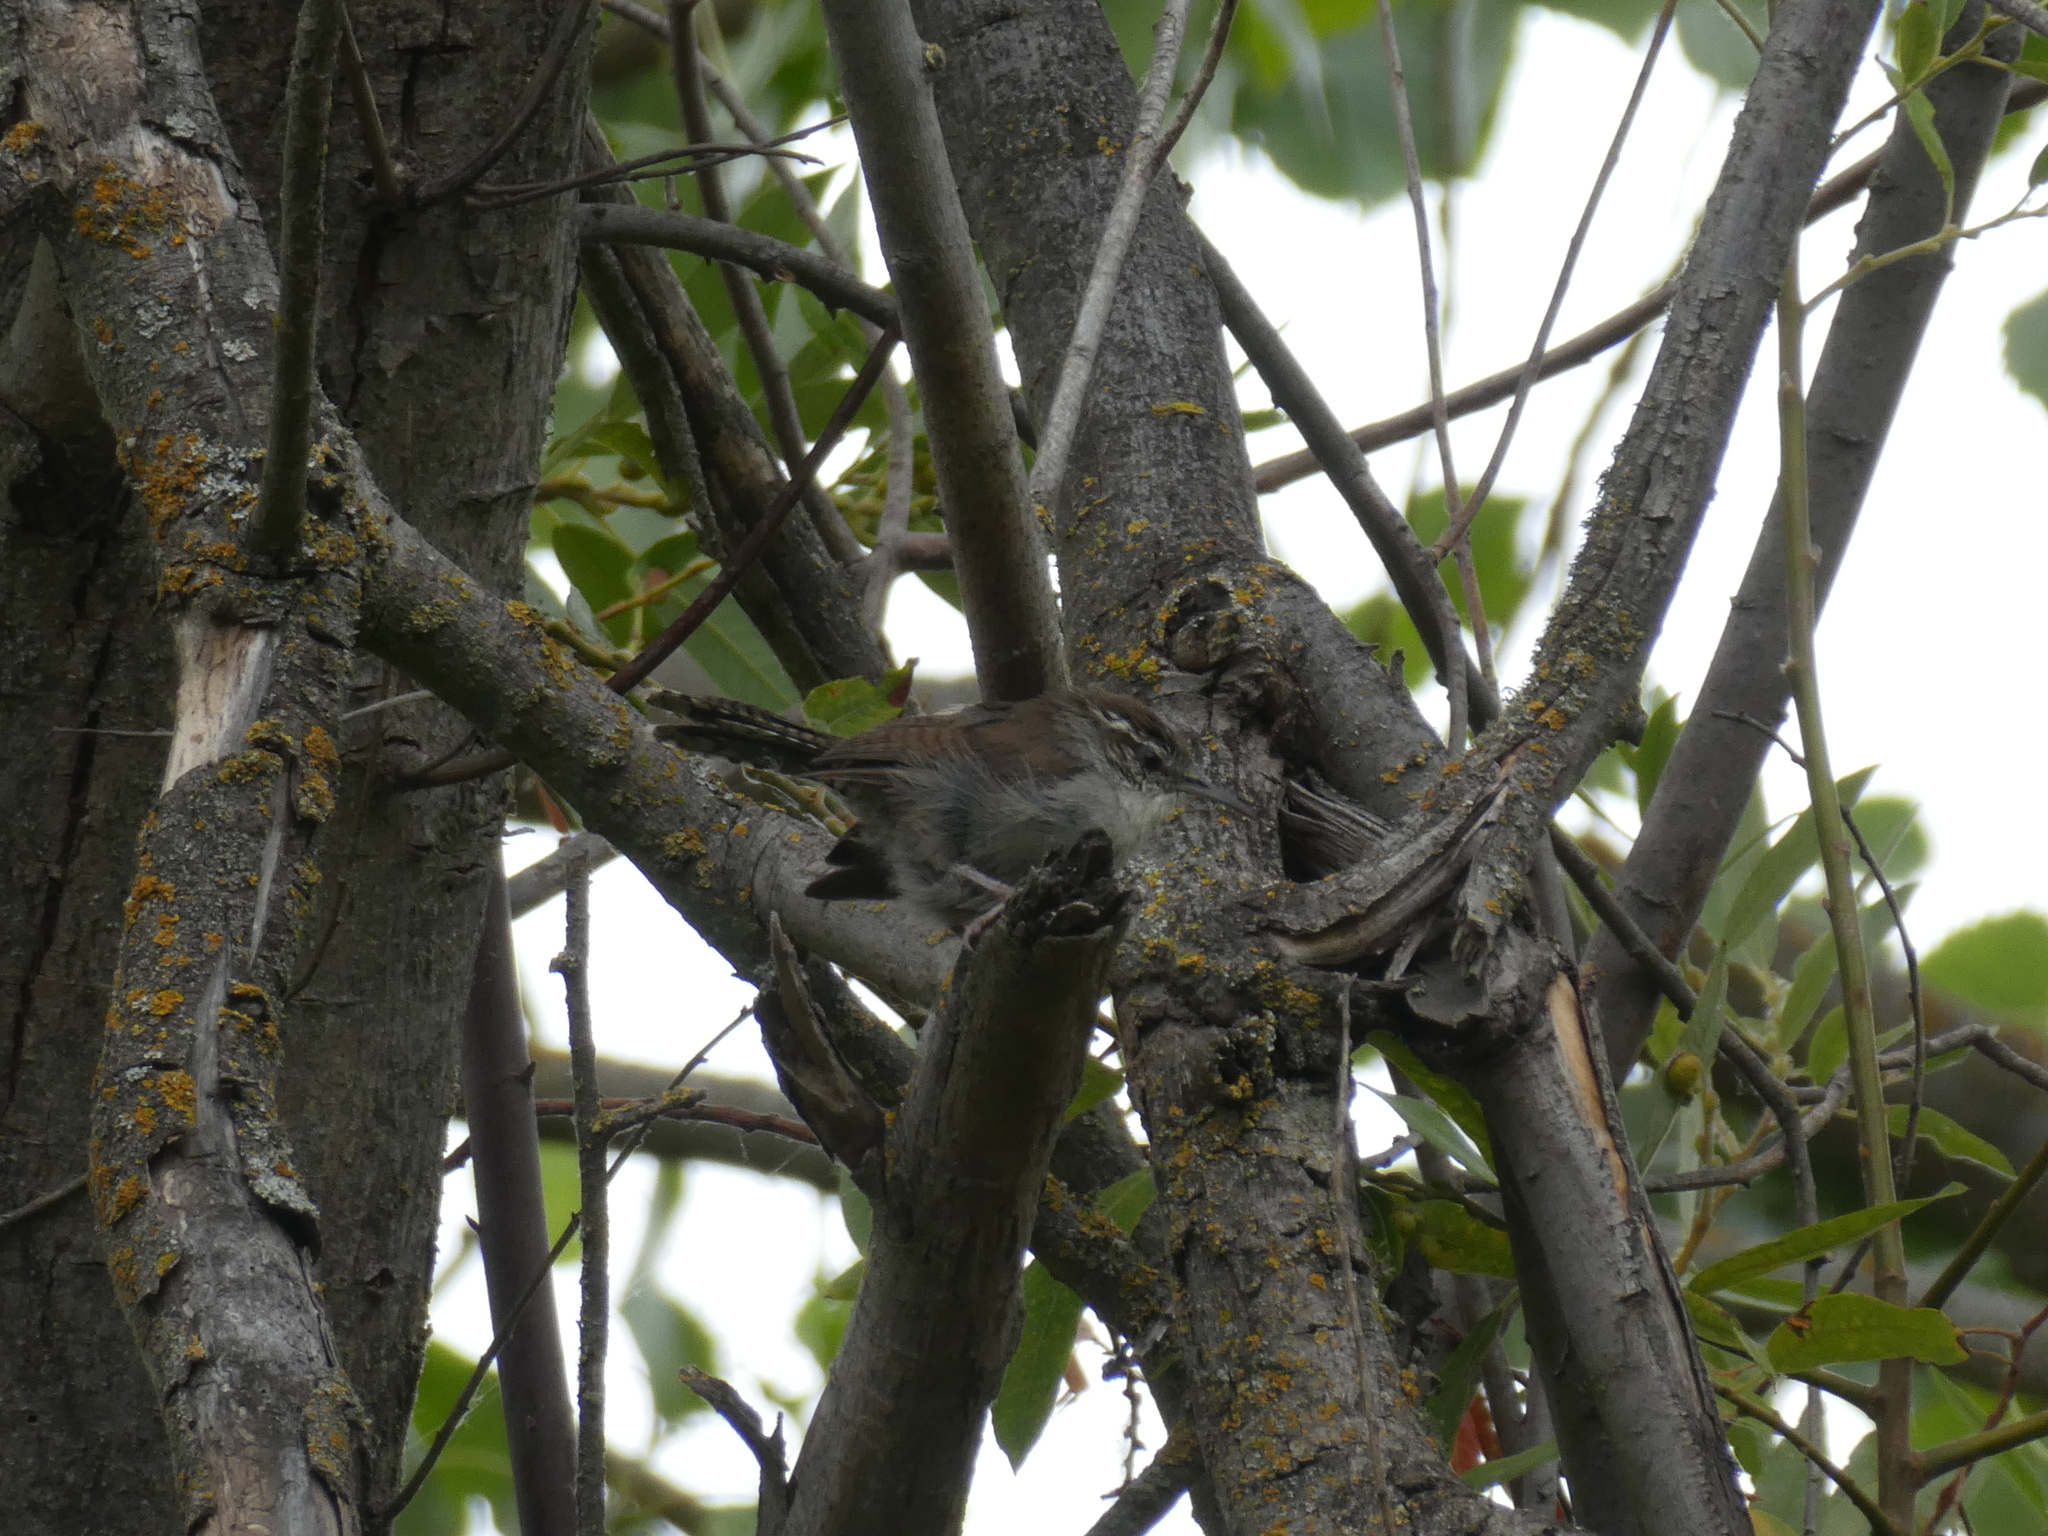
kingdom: Animalia
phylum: Chordata
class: Aves
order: Passeriformes
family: Troglodytidae
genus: Thryomanes
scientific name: Thryomanes bewickii
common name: Bewick's wren
